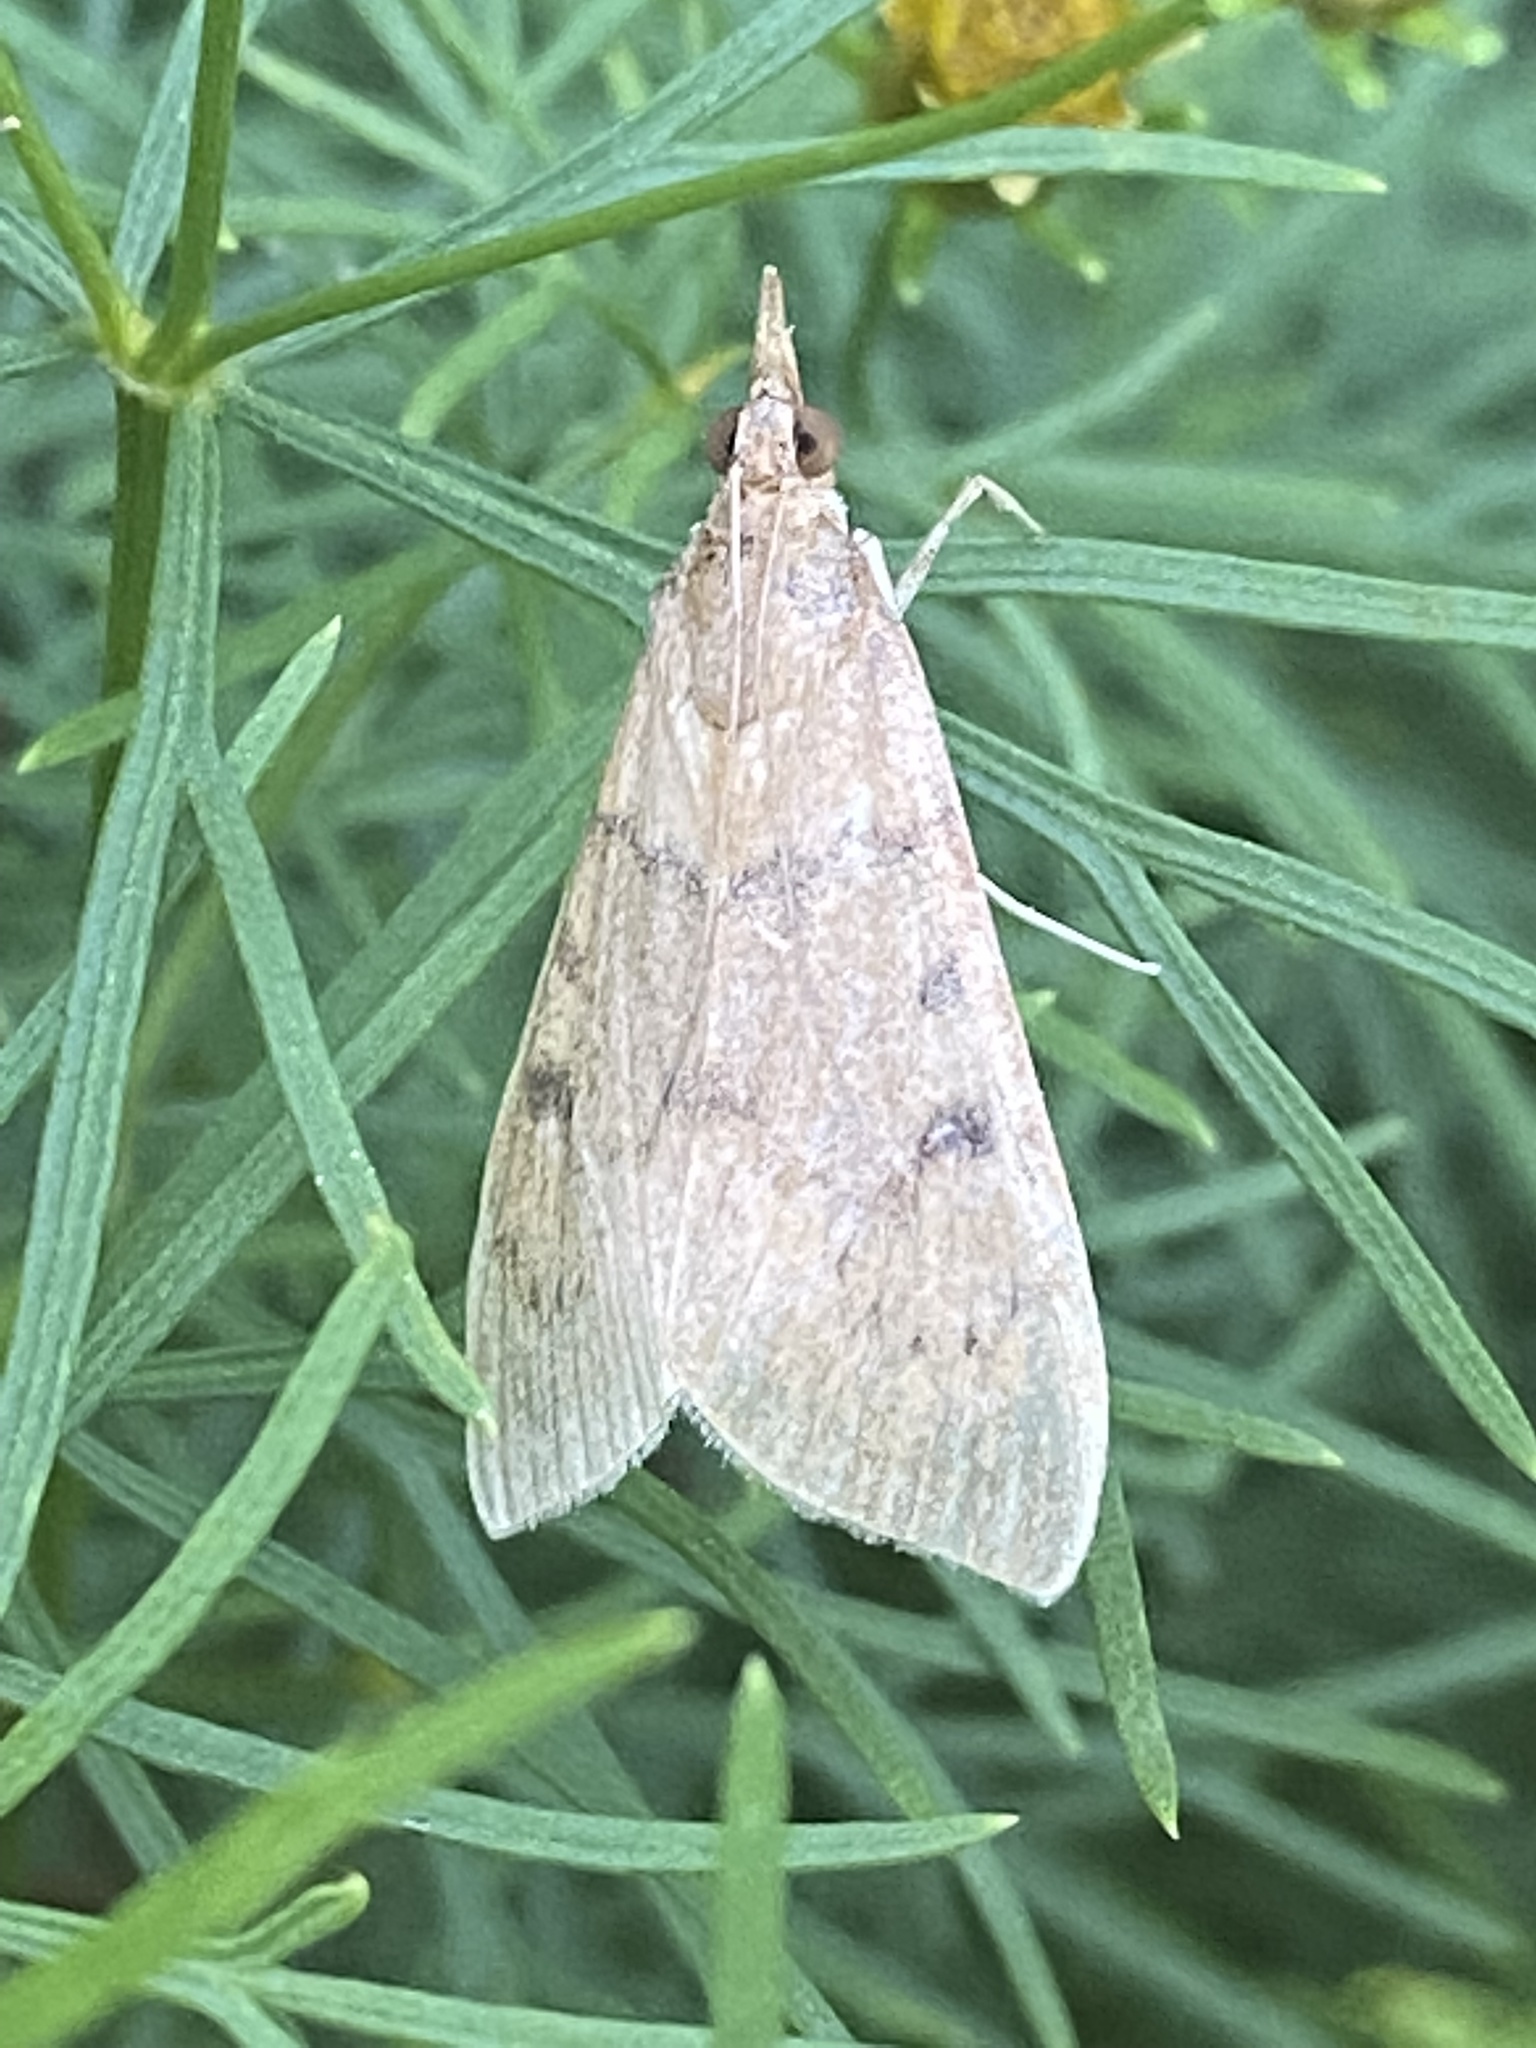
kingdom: Animalia
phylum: Arthropoda
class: Insecta
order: Lepidoptera
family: Crambidae
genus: Uresiphita
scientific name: Uresiphita reversalis
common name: Genista broom moth
